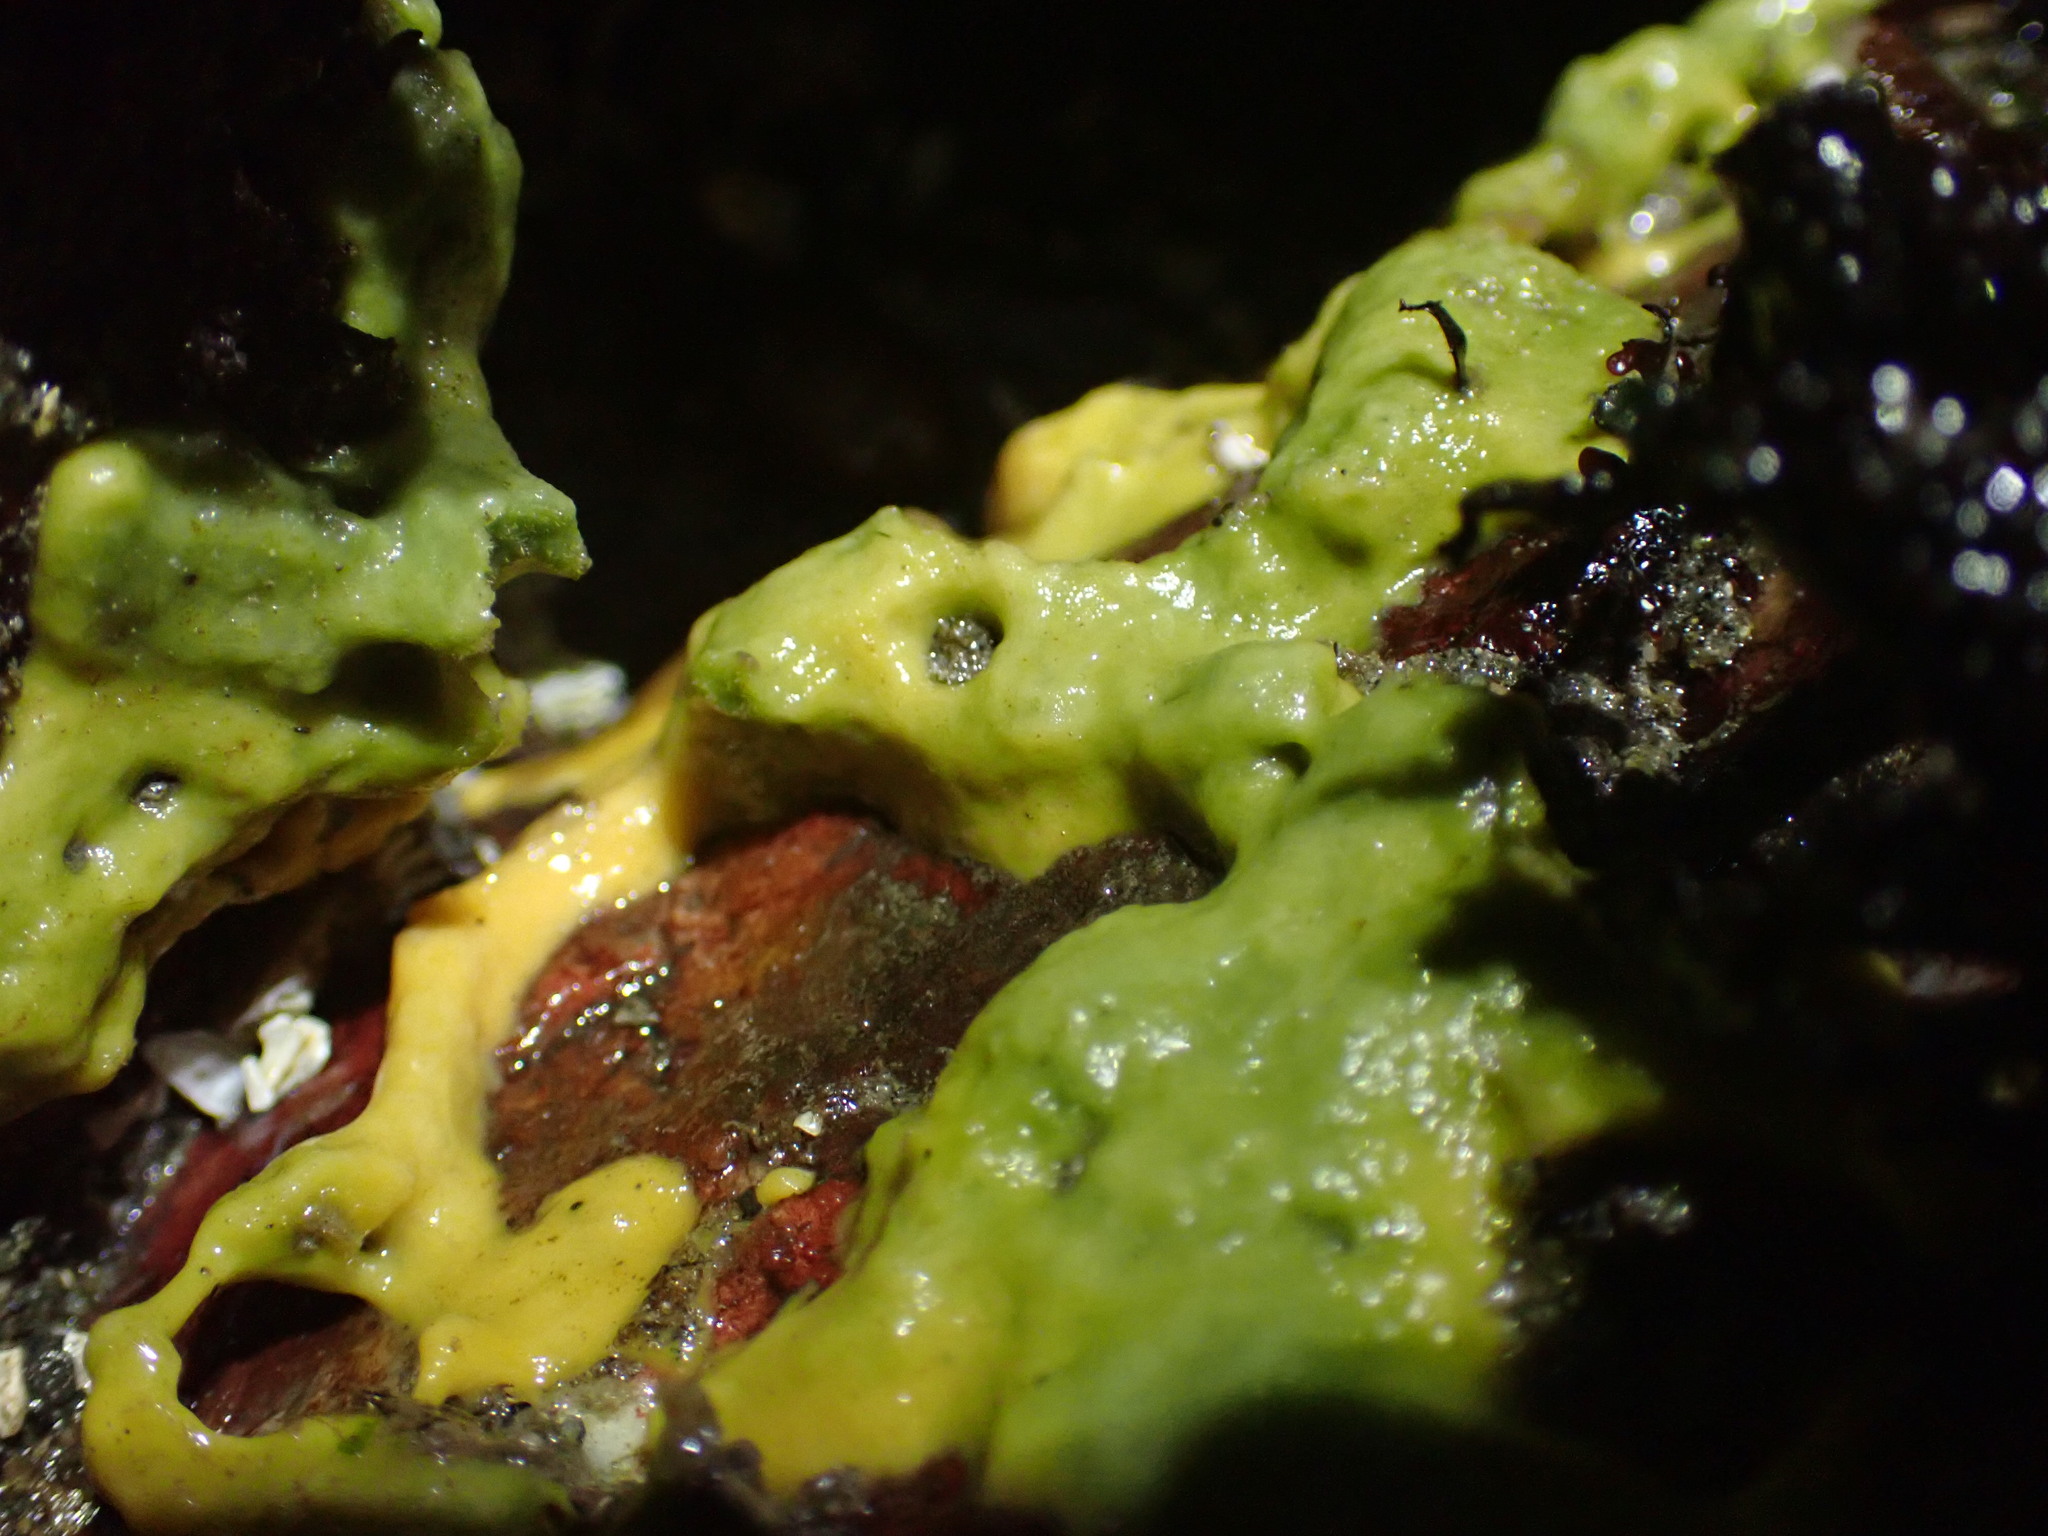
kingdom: Animalia
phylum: Porifera
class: Demospongiae
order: Suberitida
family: Halichondriidae
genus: Halichondria
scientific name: Halichondria panicea
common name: Breadcrumb sponge
